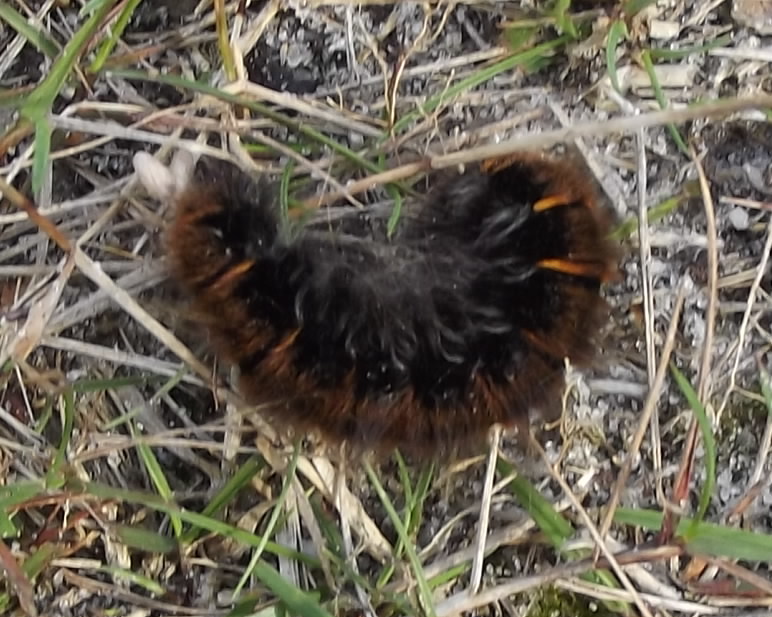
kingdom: Animalia
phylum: Arthropoda
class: Insecta
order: Lepidoptera
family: Lasiocampidae
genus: Macrothylacia
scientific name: Macrothylacia rubi
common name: Fox moth
